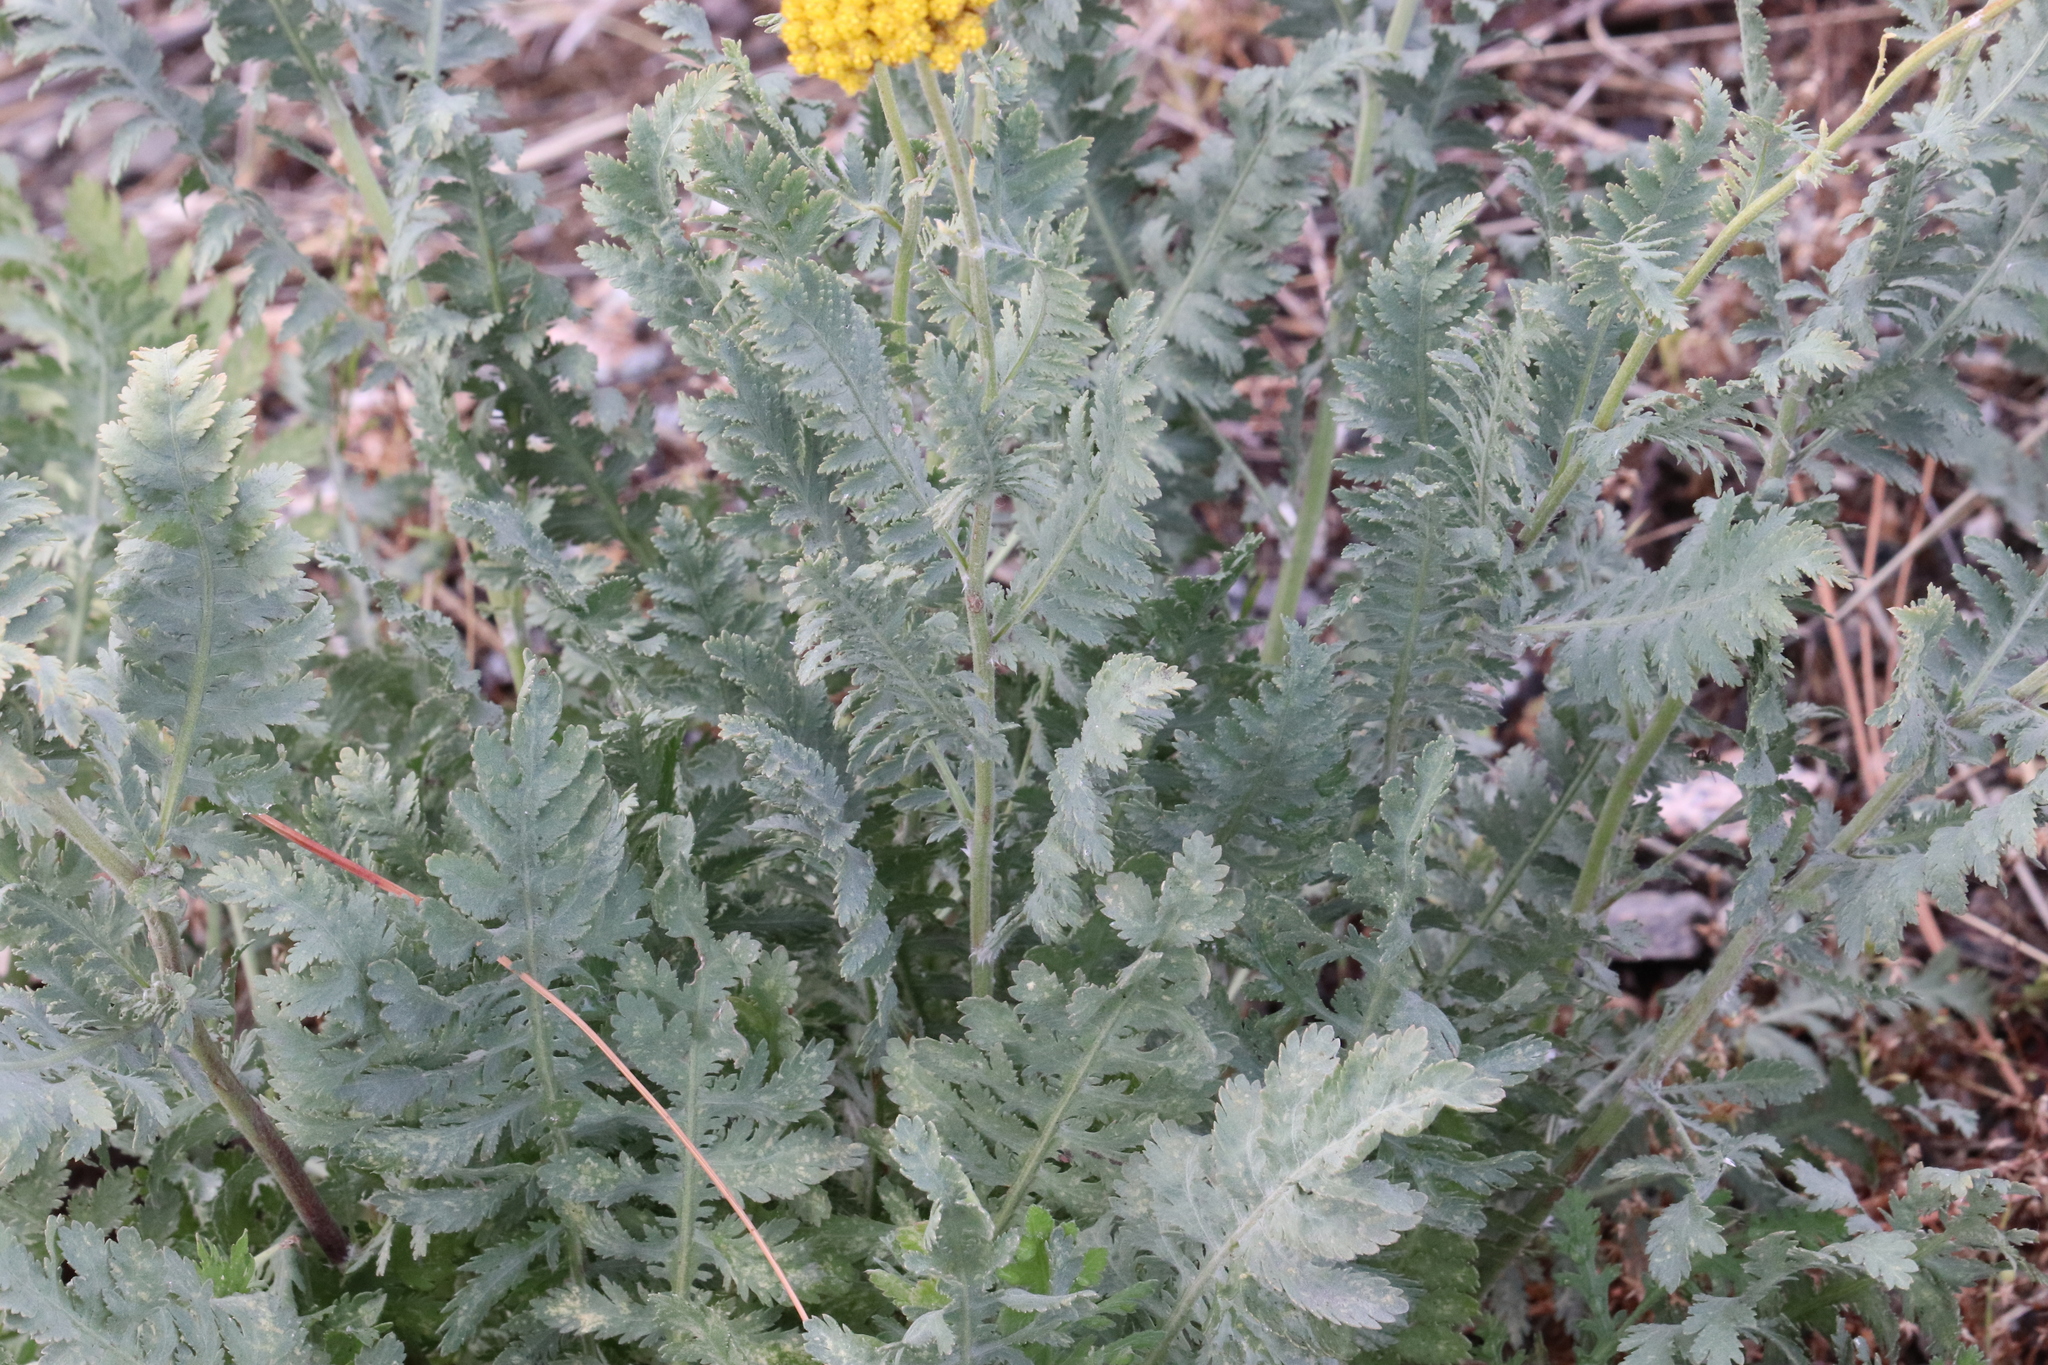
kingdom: Plantae
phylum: Tracheophyta
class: Magnoliopsida
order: Asterales
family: Asteraceae
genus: Achillea
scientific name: Achillea filipendulina
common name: Fernleaf yarrow
